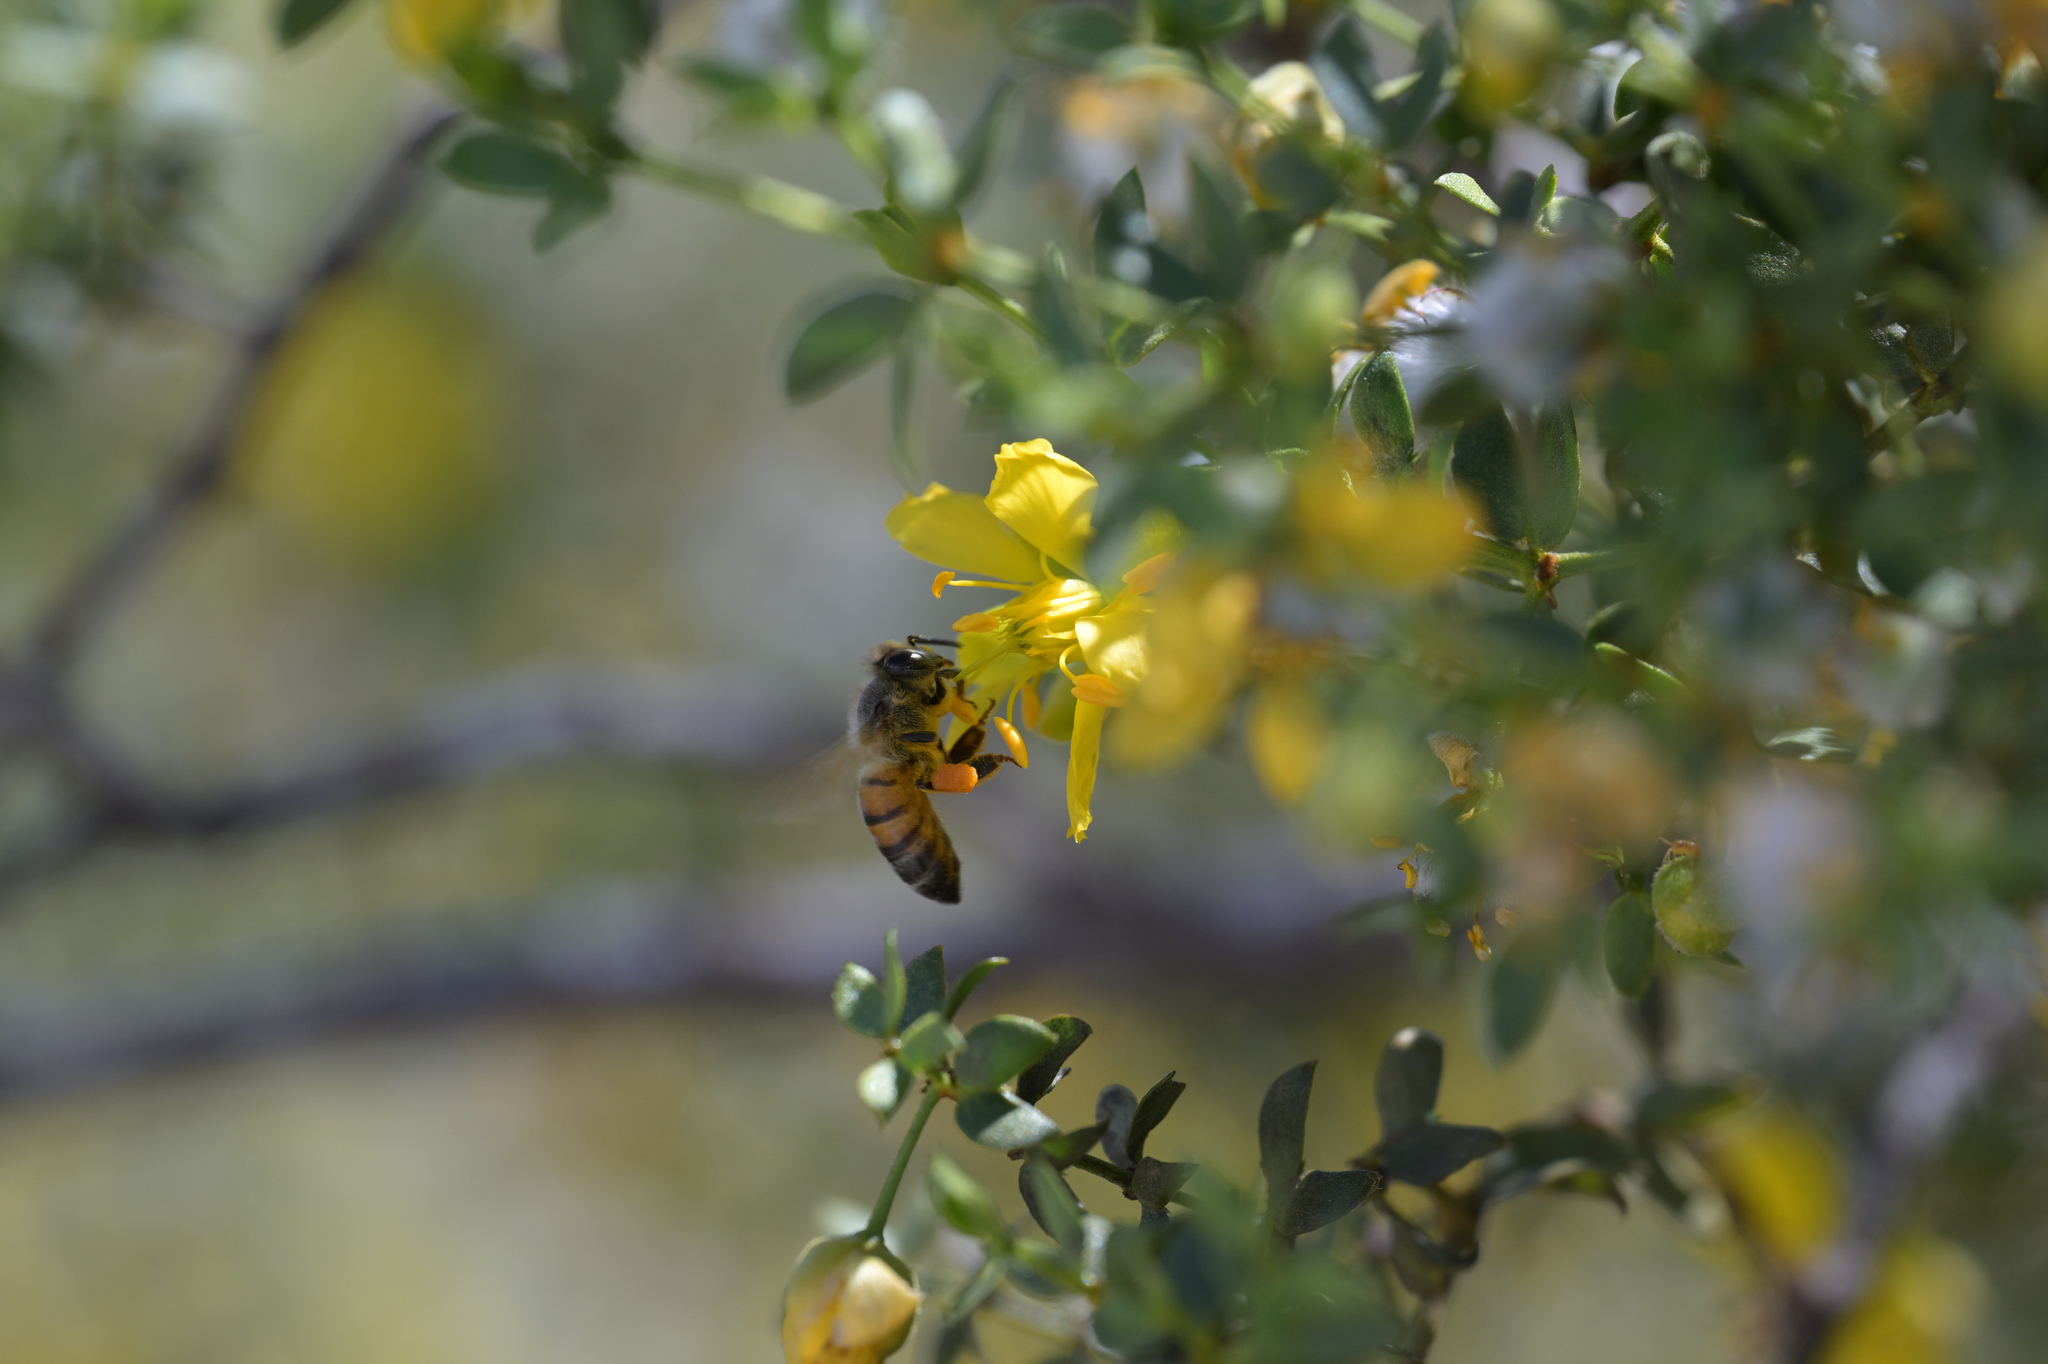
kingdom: Animalia
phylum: Arthropoda
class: Insecta
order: Hymenoptera
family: Apidae
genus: Apis
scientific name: Apis mellifera
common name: Honey bee
